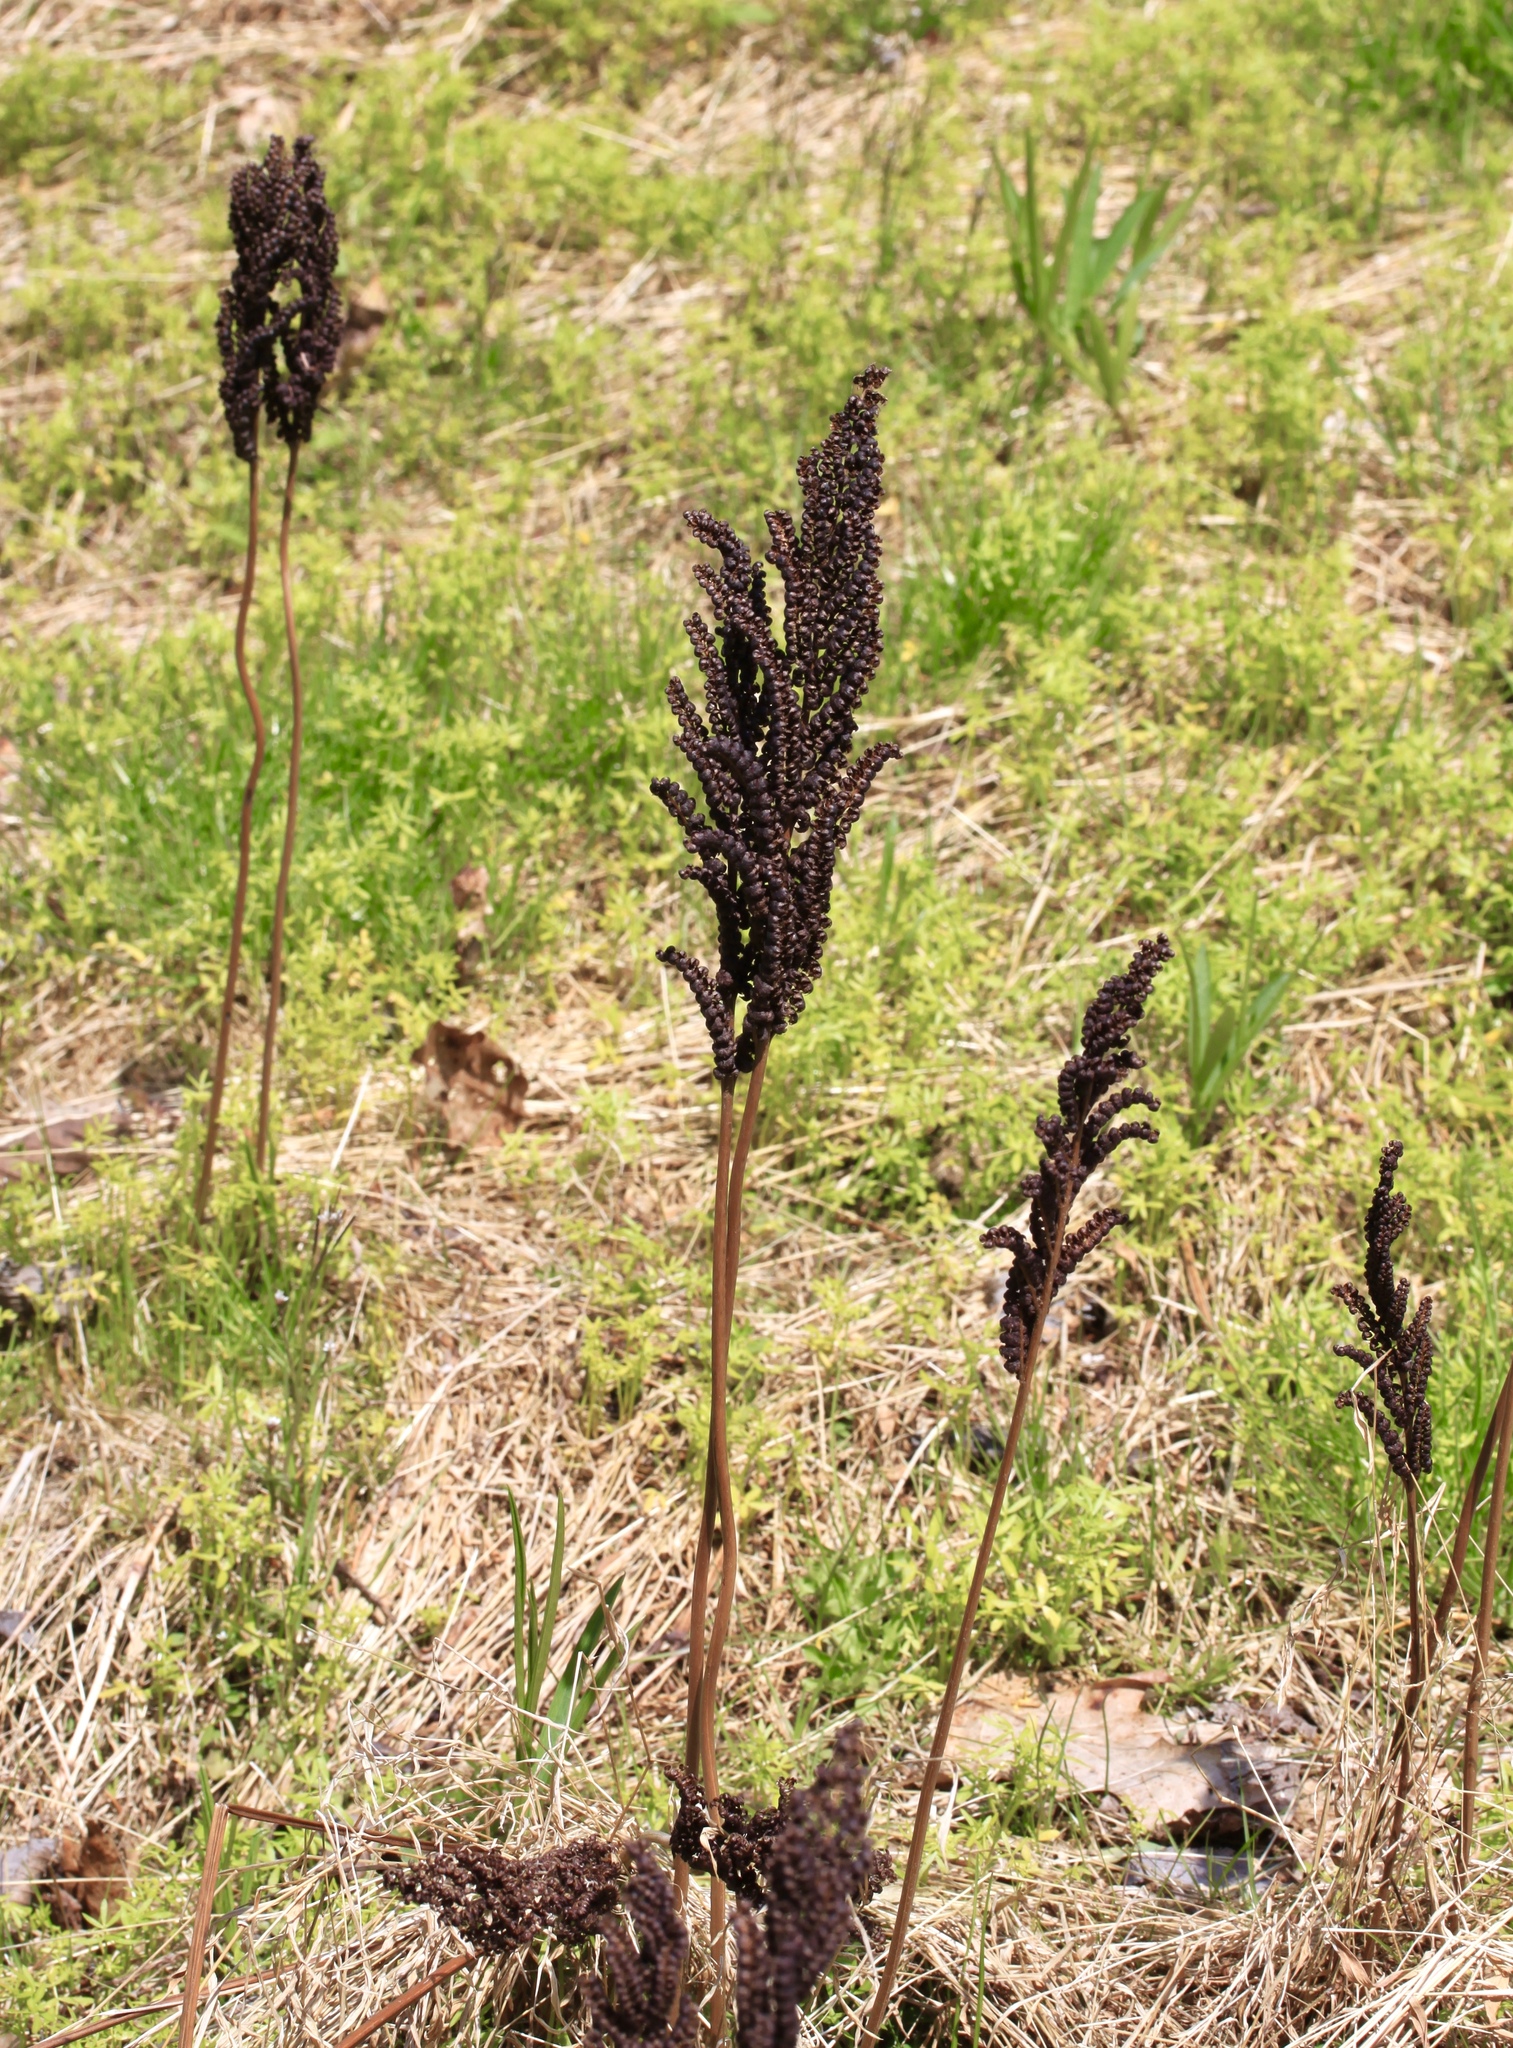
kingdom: Plantae
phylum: Tracheophyta
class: Polypodiopsida
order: Polypodiales
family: Onocleaceae
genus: Onoclea
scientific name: Onoclea sensibilis
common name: Sensitive fern
